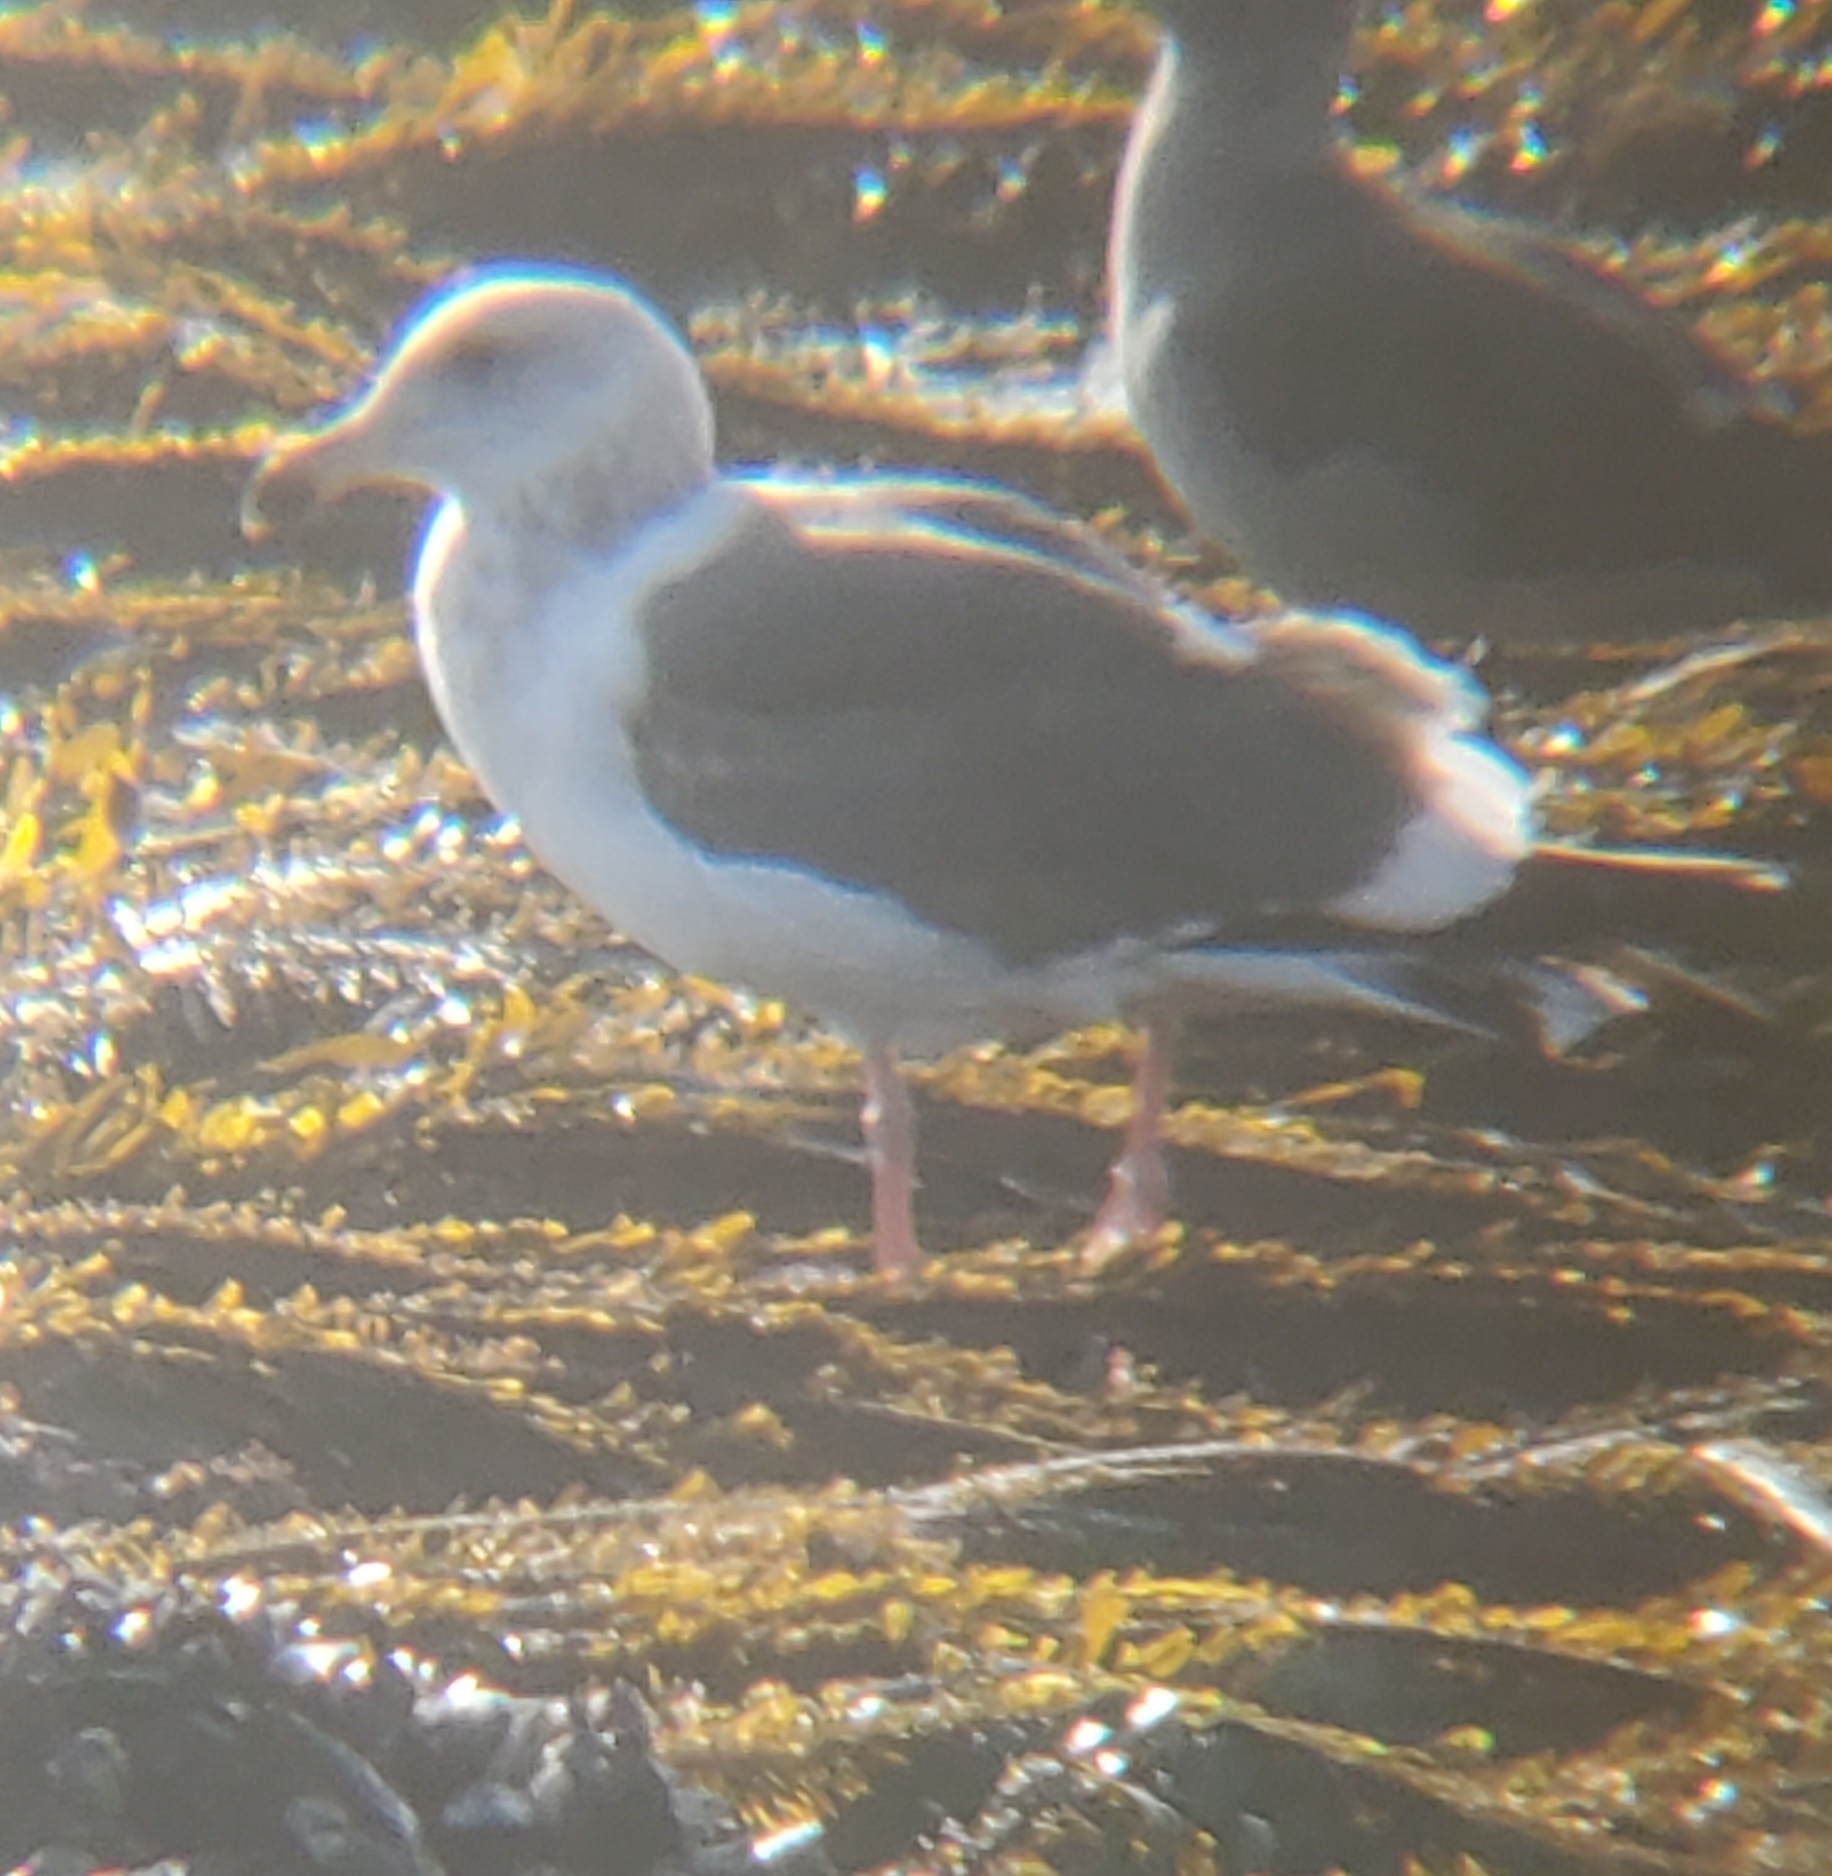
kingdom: Animalia
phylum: Chordata
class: Aves
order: Charadriiformes
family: Laridae
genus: Larus
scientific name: Larus occidentalis
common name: Western gull
